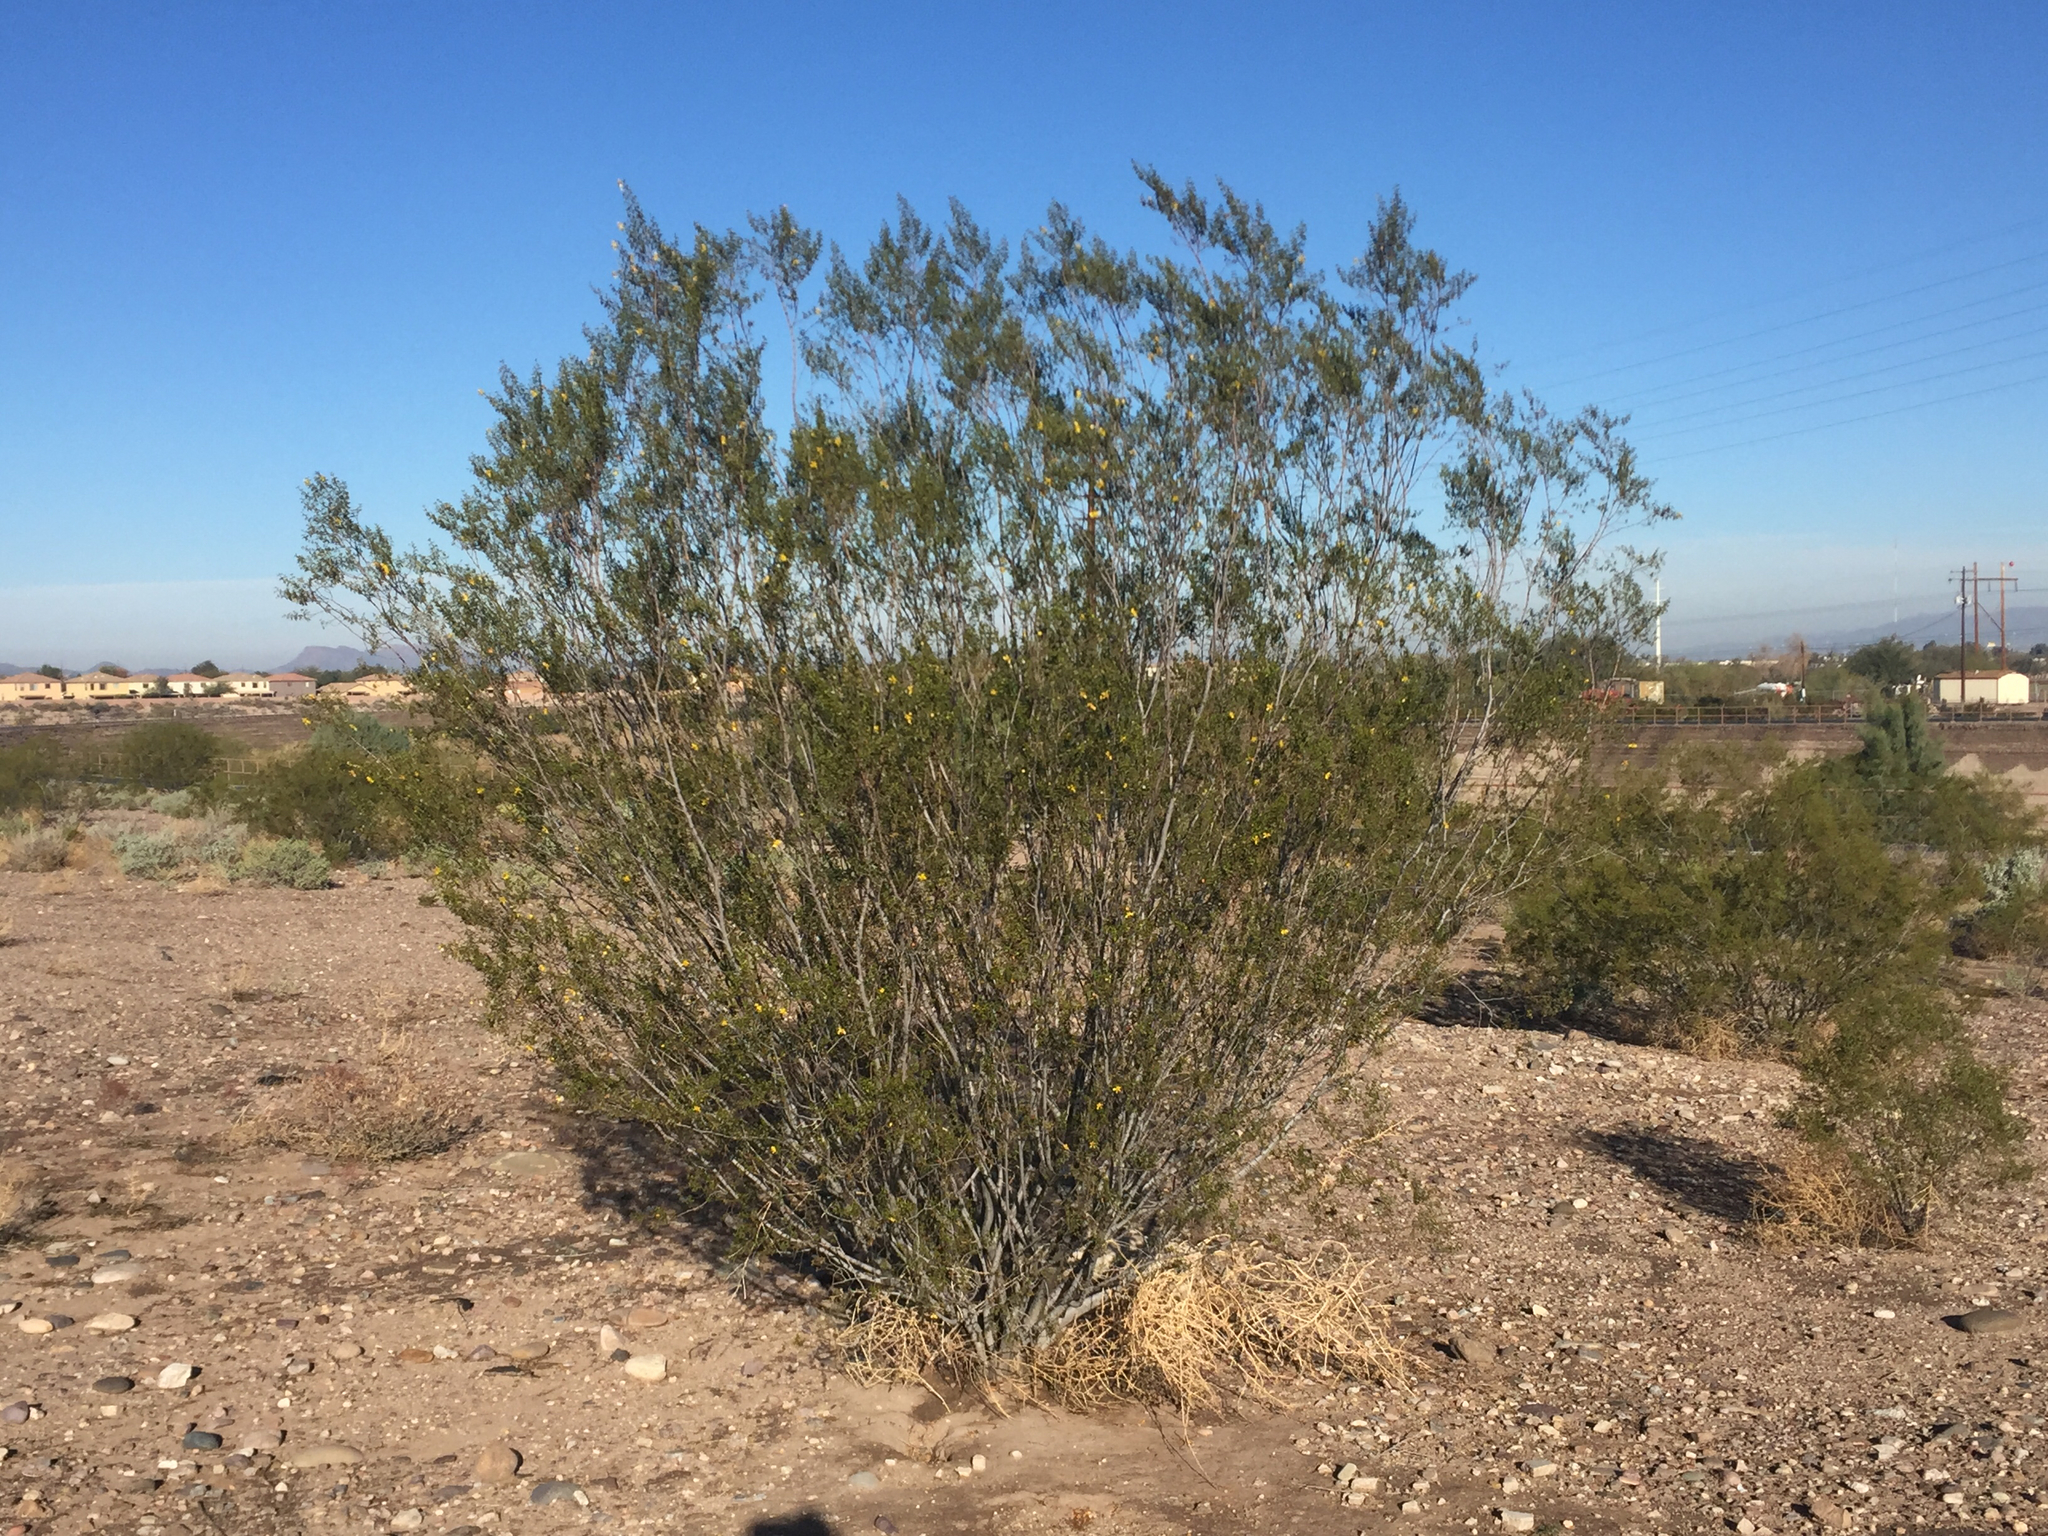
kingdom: Plantae
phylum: Tracheophyta
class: Magnoliopsida
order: Zygophyllales
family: Zygophyllaceae
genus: Larrea
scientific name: Larrea tridentata
